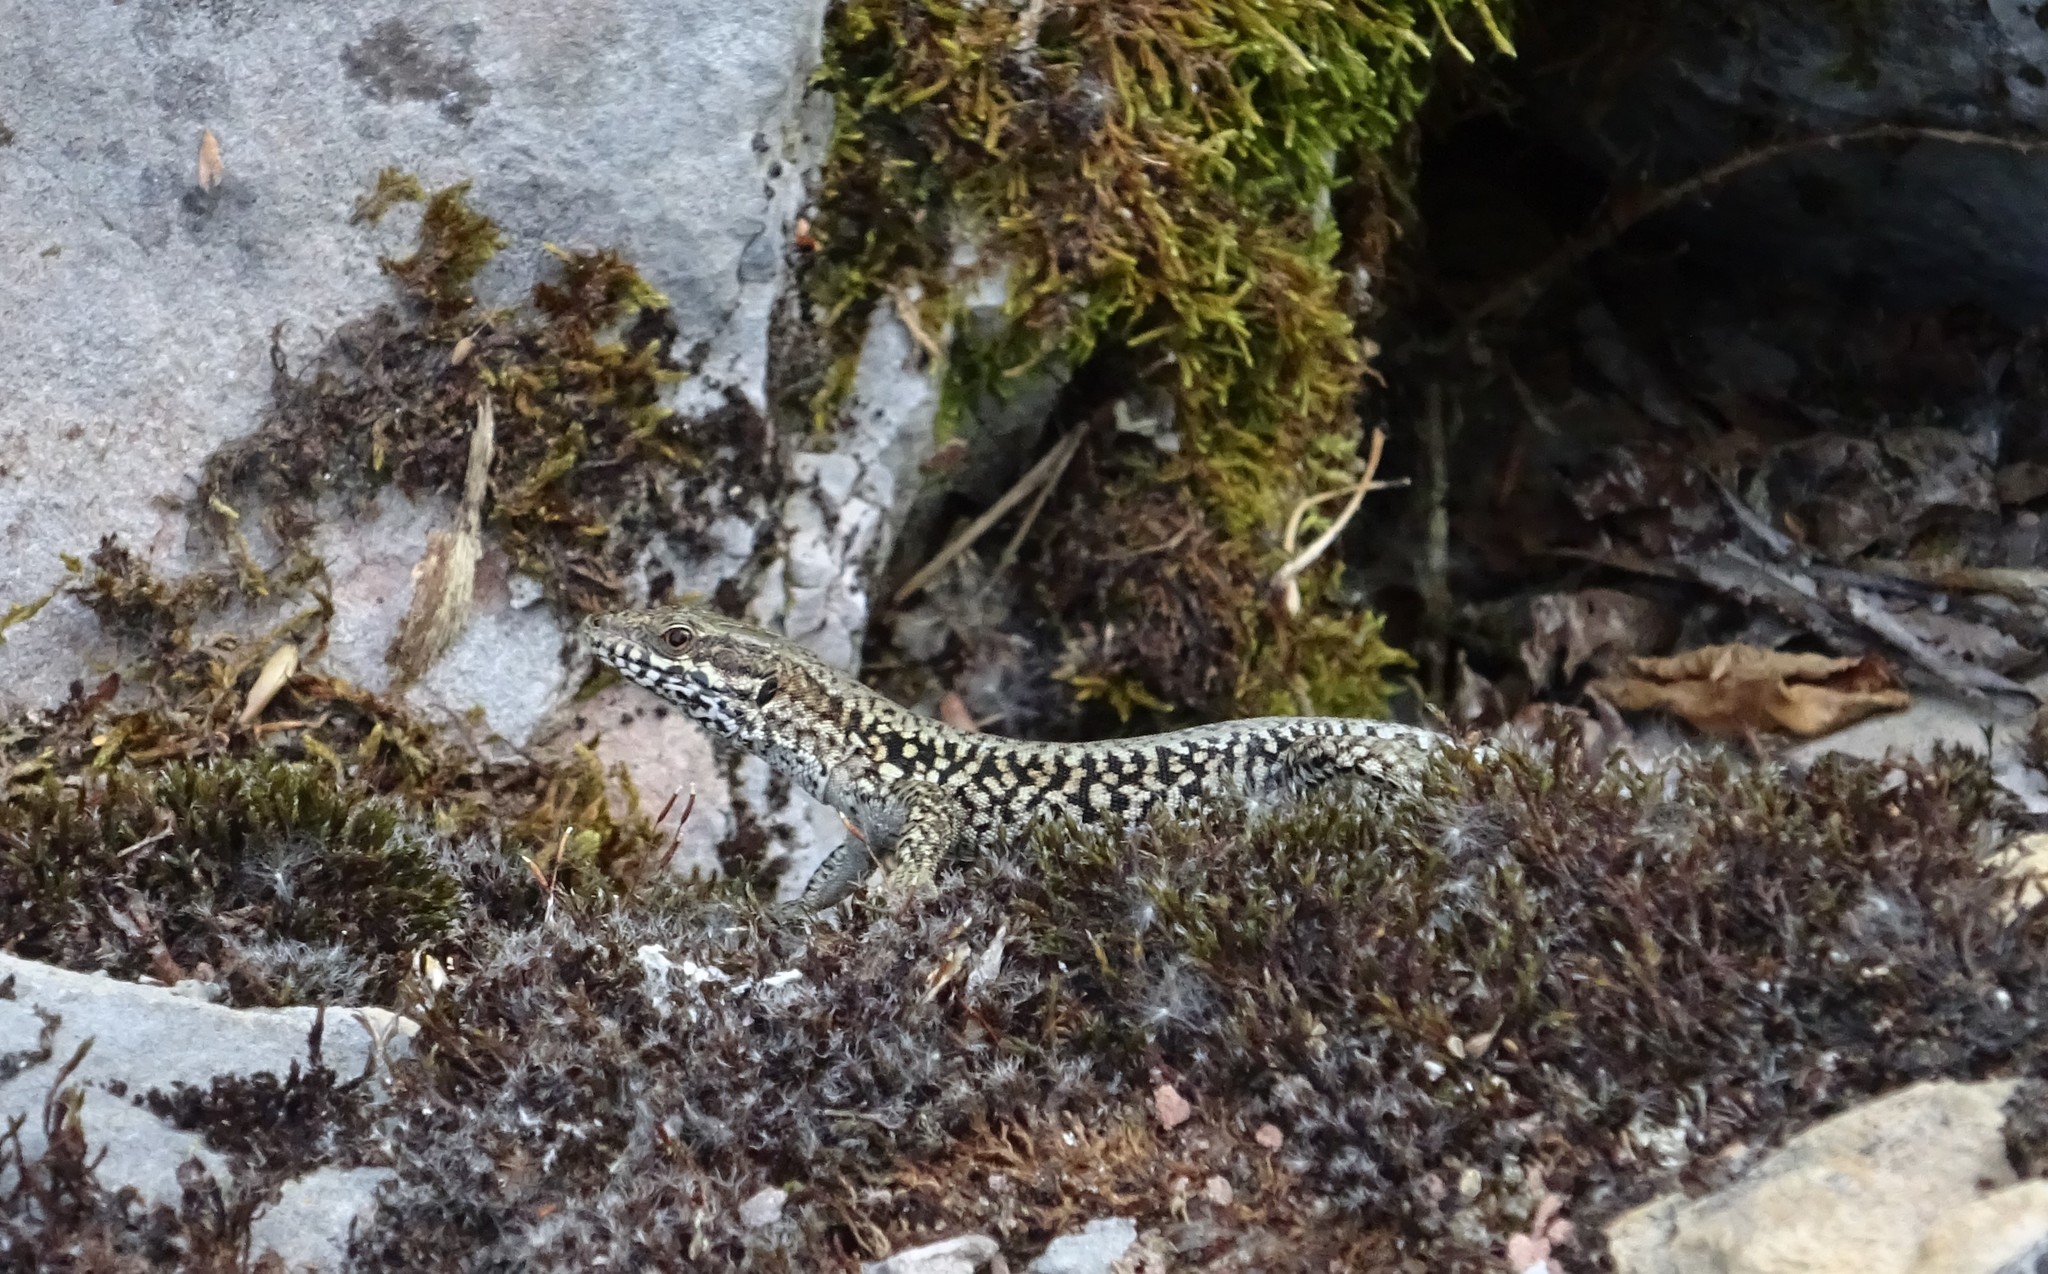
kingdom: Animalia
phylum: Chordata
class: Squamata
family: Lacertidae
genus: Podarcis
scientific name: Podarcis muralis
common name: Common wall lizard
